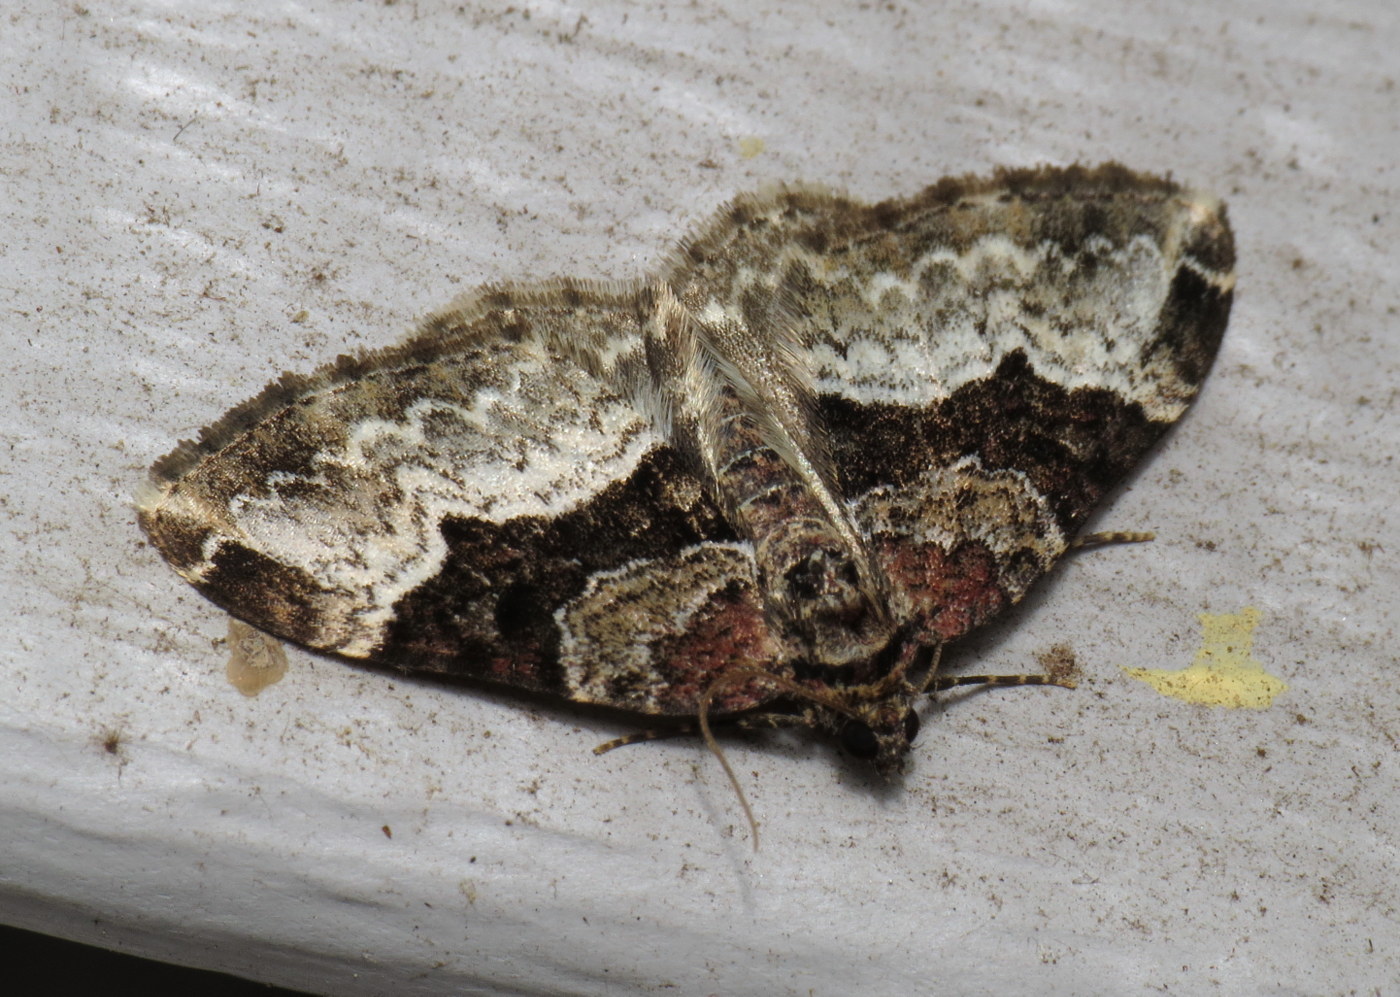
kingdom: Animalia
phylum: Arthropoda
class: Insecta
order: Lepidoptera
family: Geometridae
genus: Euphyia
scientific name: Euphyia intermediata
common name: Sharp-angled carpet
